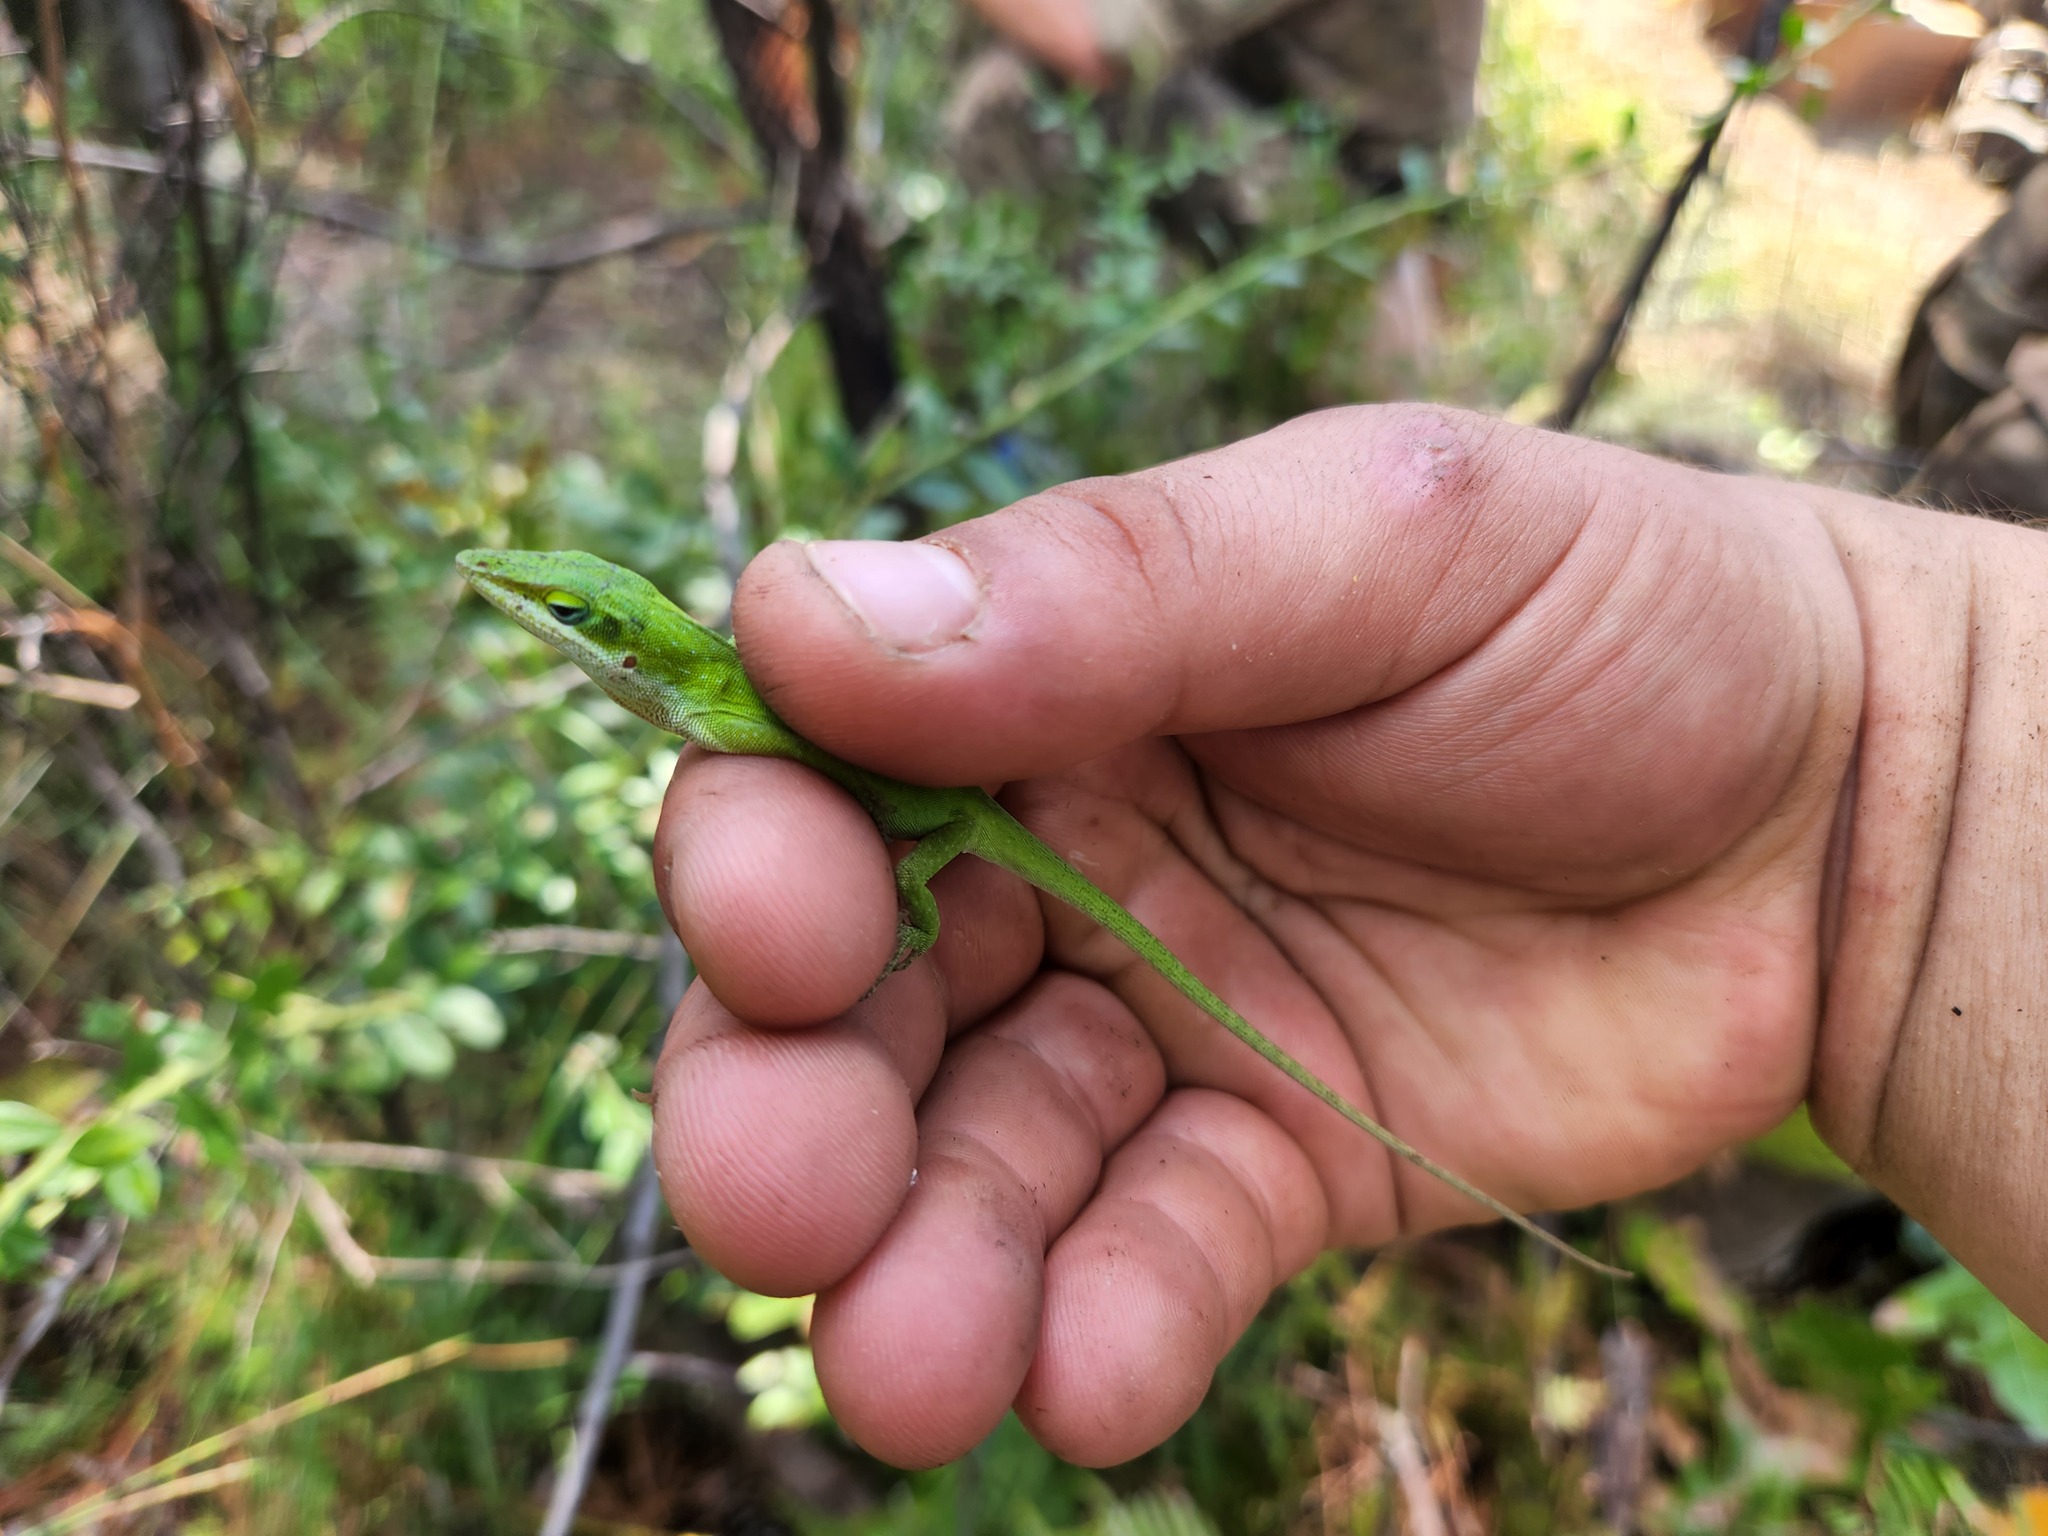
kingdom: Animalia
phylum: Chordata
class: Squamata
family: Dactyloidae
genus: Anolis
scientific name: Anolis carolinensis
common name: Green anole
